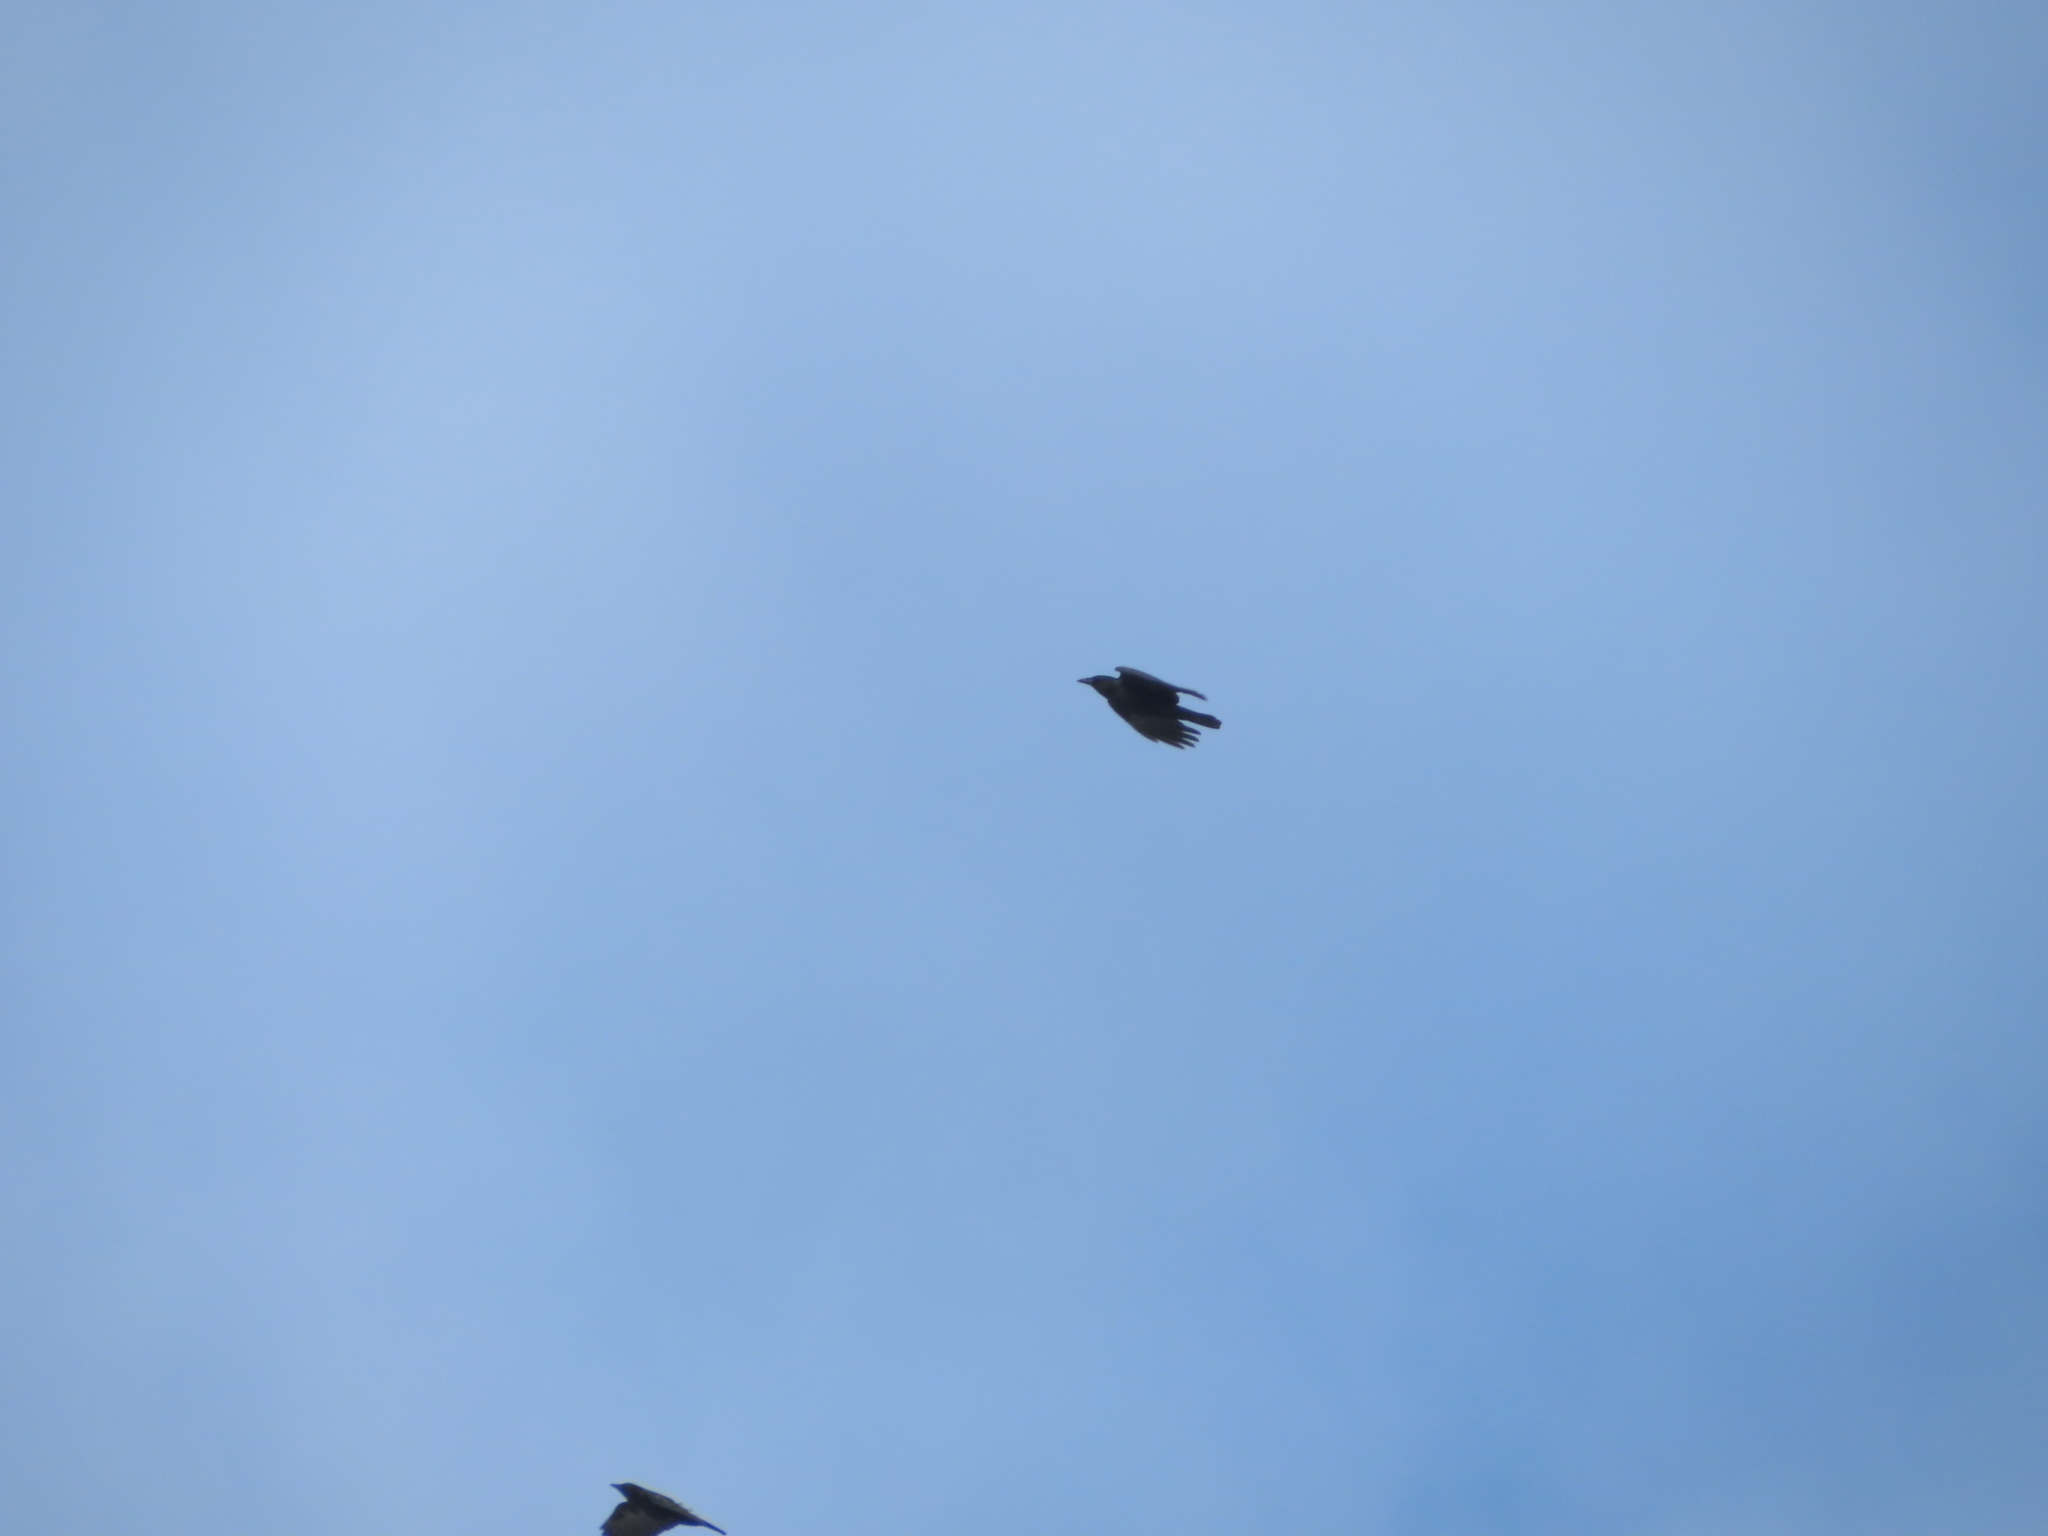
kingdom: Animalia
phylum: Chordata
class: Aves
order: Passeriformes
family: Corvidae
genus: Corvus
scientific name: Corvus brachyrhynchos
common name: American crow
